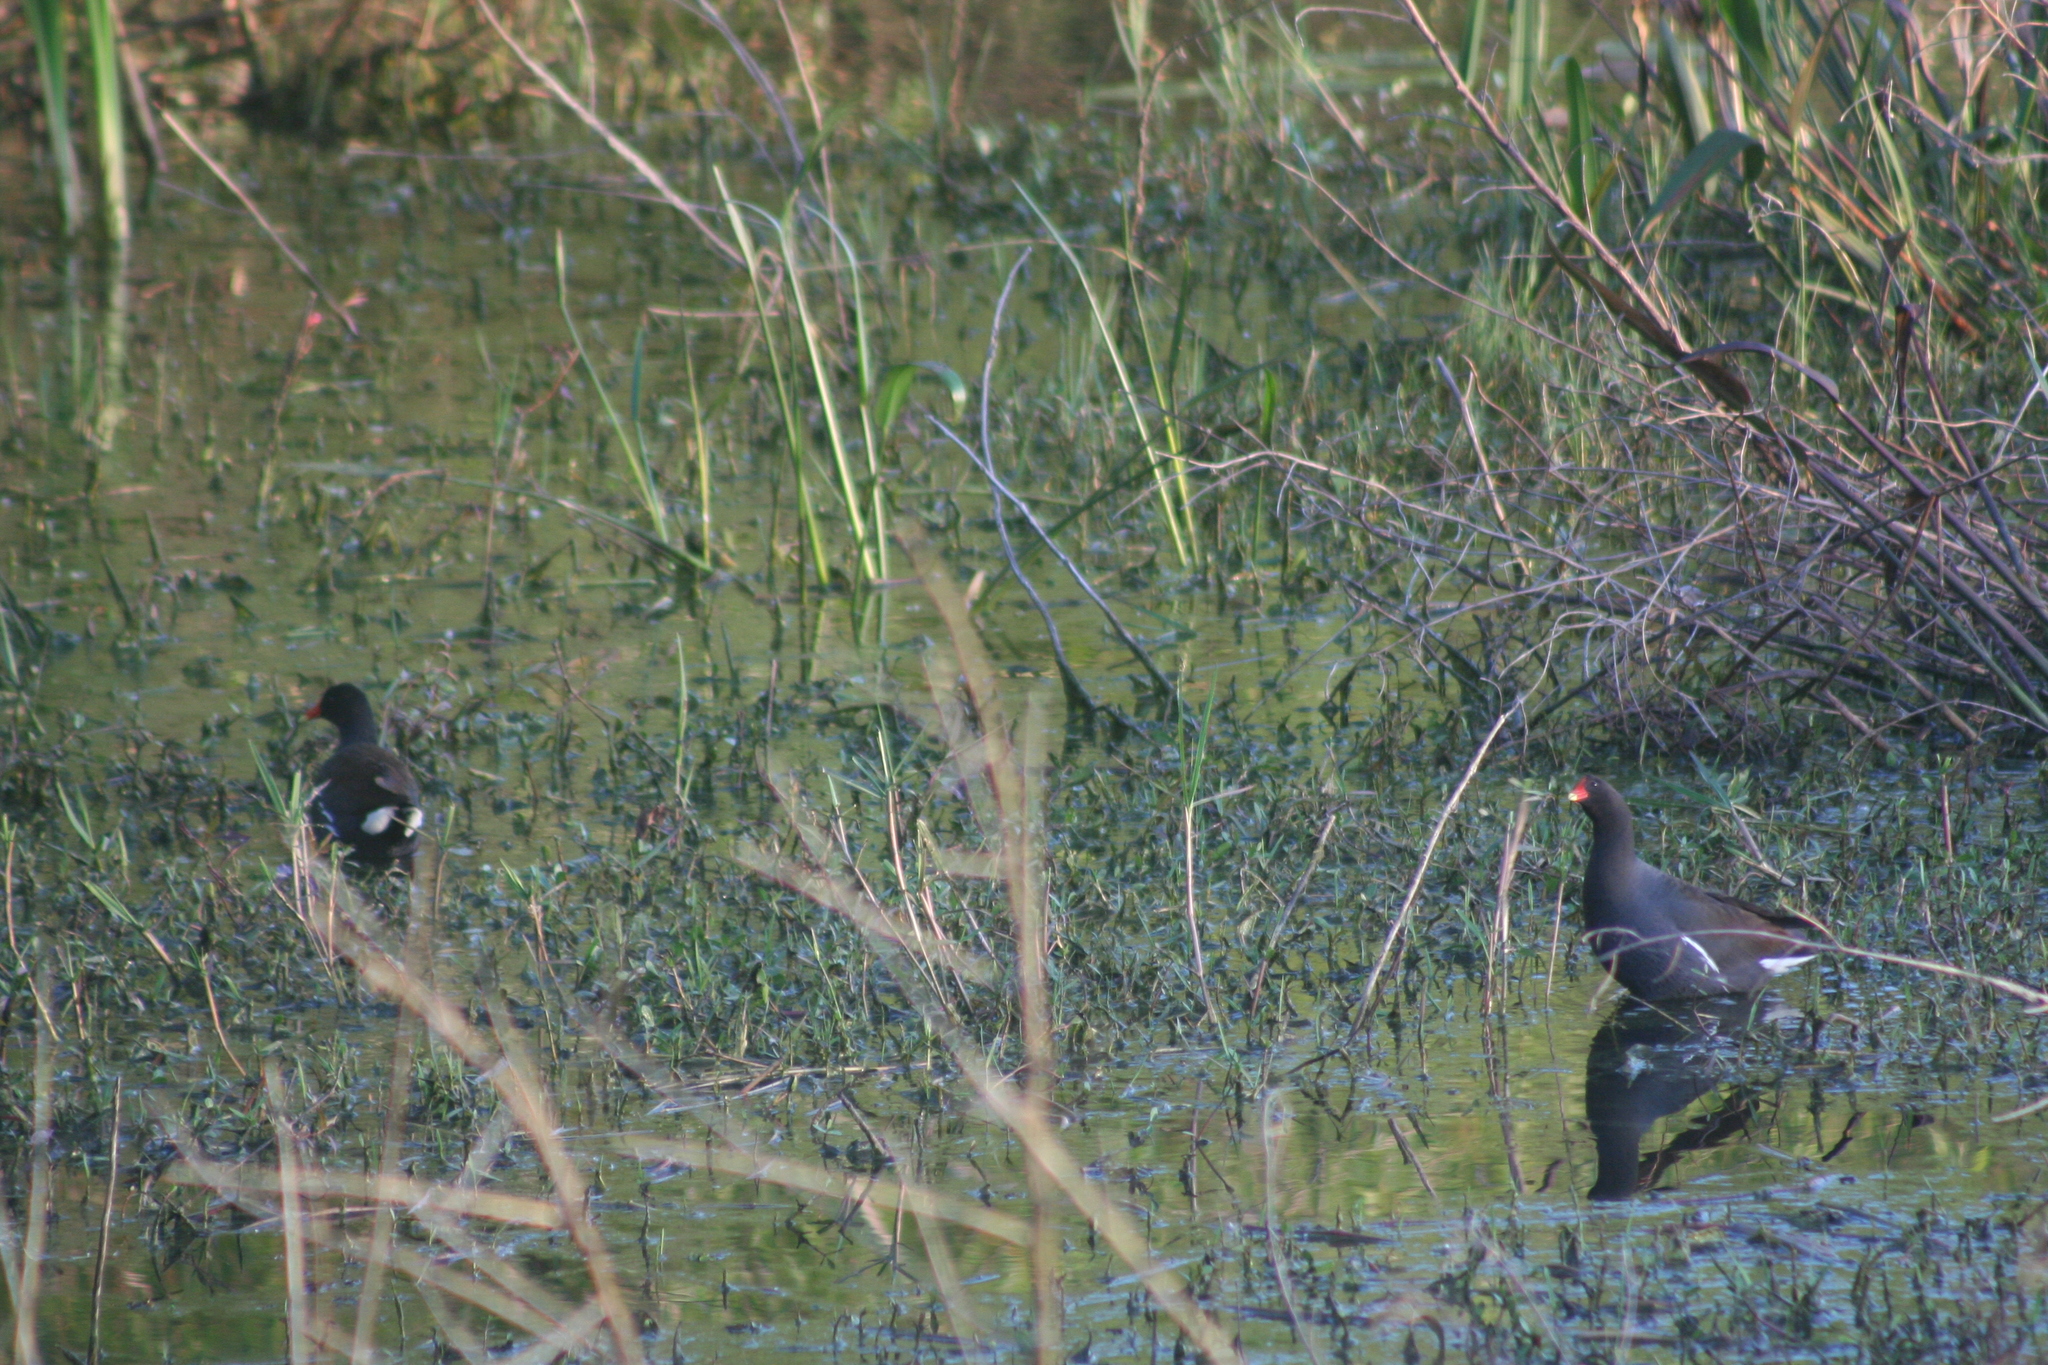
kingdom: Animalia
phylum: Chordata
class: Aves
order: Gruiformes
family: Rallidae
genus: Gallinula
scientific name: Gallinula chloropus
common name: Common moorhen
